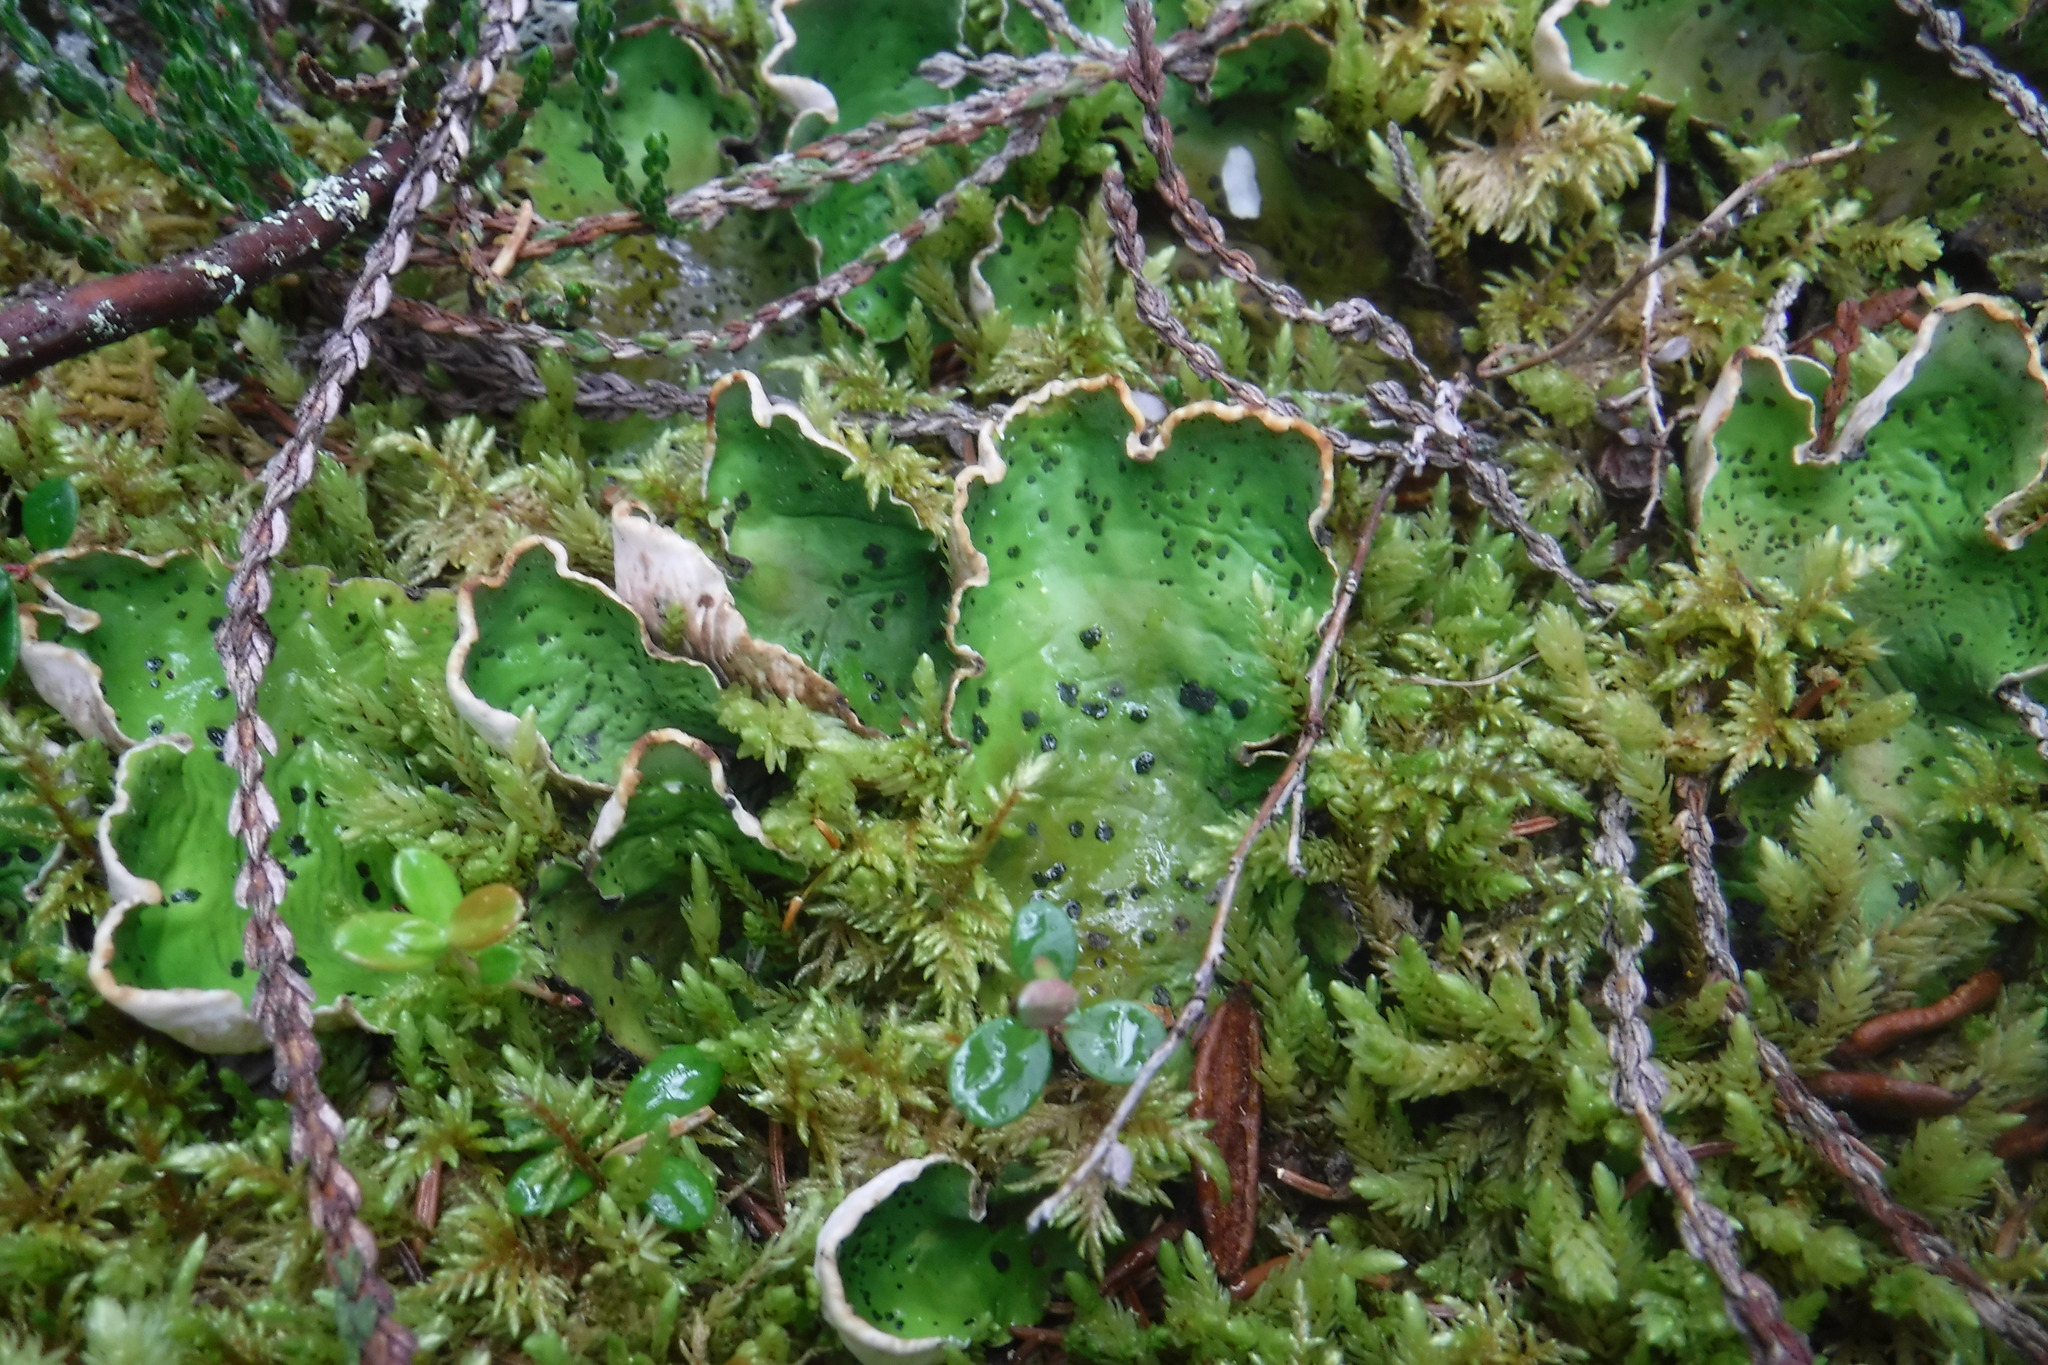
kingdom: Fungi
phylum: Ascomycota
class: Lecanoromycetes
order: Peltigerales
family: Peltigeraceae
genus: Peltigera
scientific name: Peltigera aphthosa
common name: Common freckle pelt lichen
